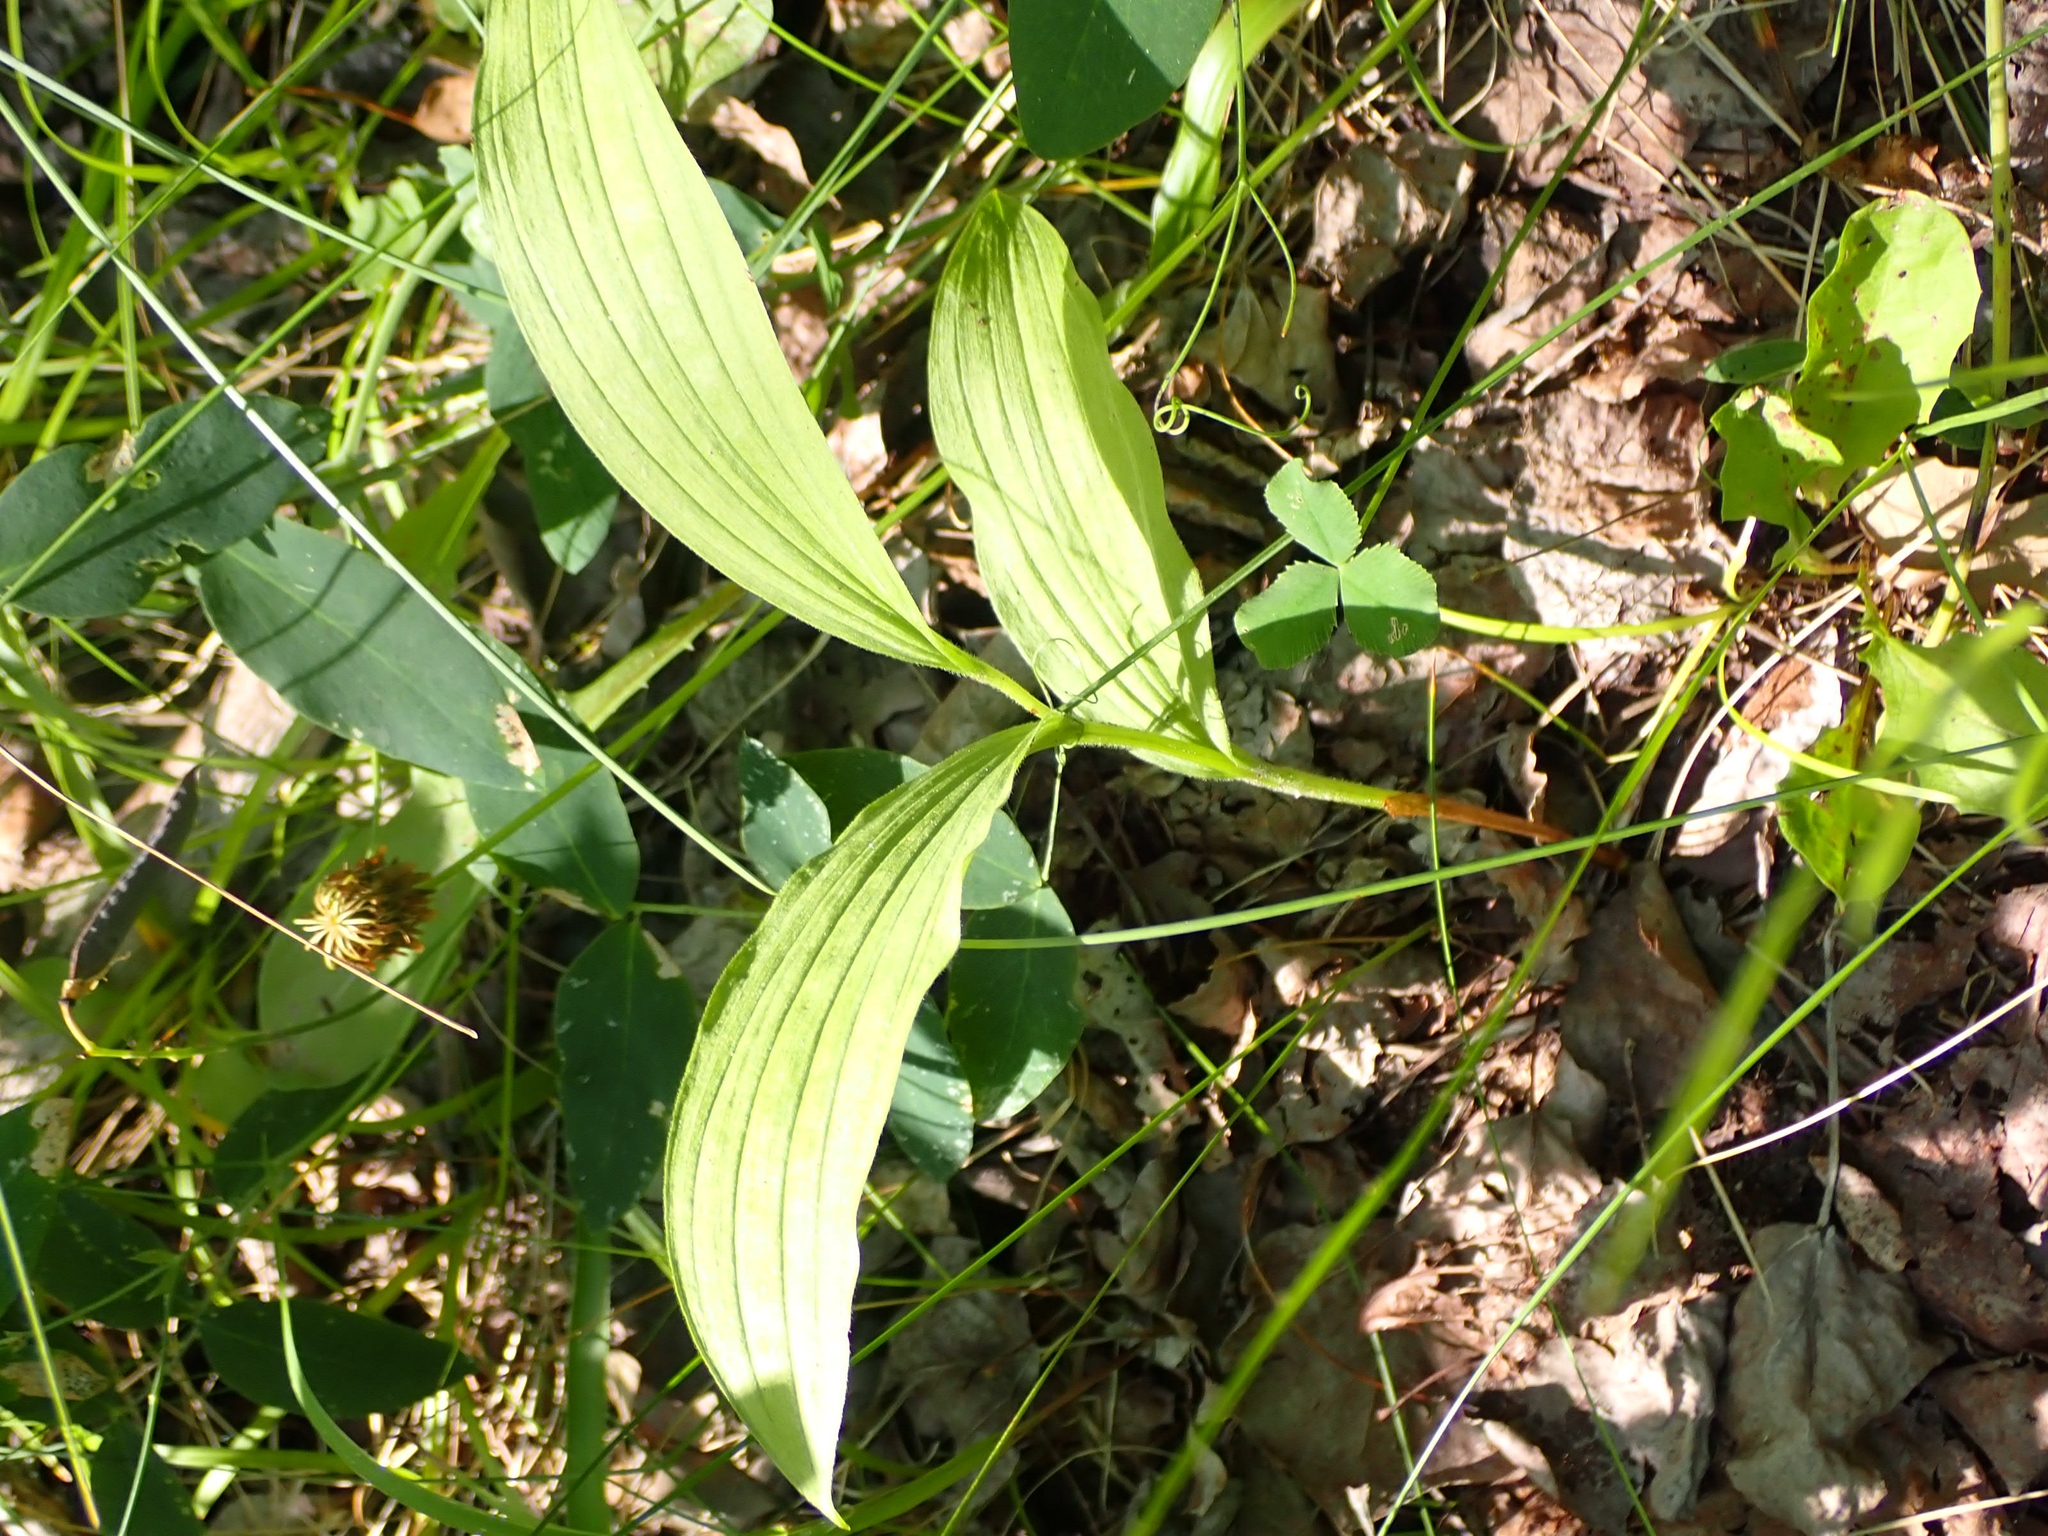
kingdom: Plantae
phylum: Tracheophyta
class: Liliopsida
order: Asparagales
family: Orchidaceae
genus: Cypripedium
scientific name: Cypripedium parviflorum
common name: American yellow lady's-slipper
